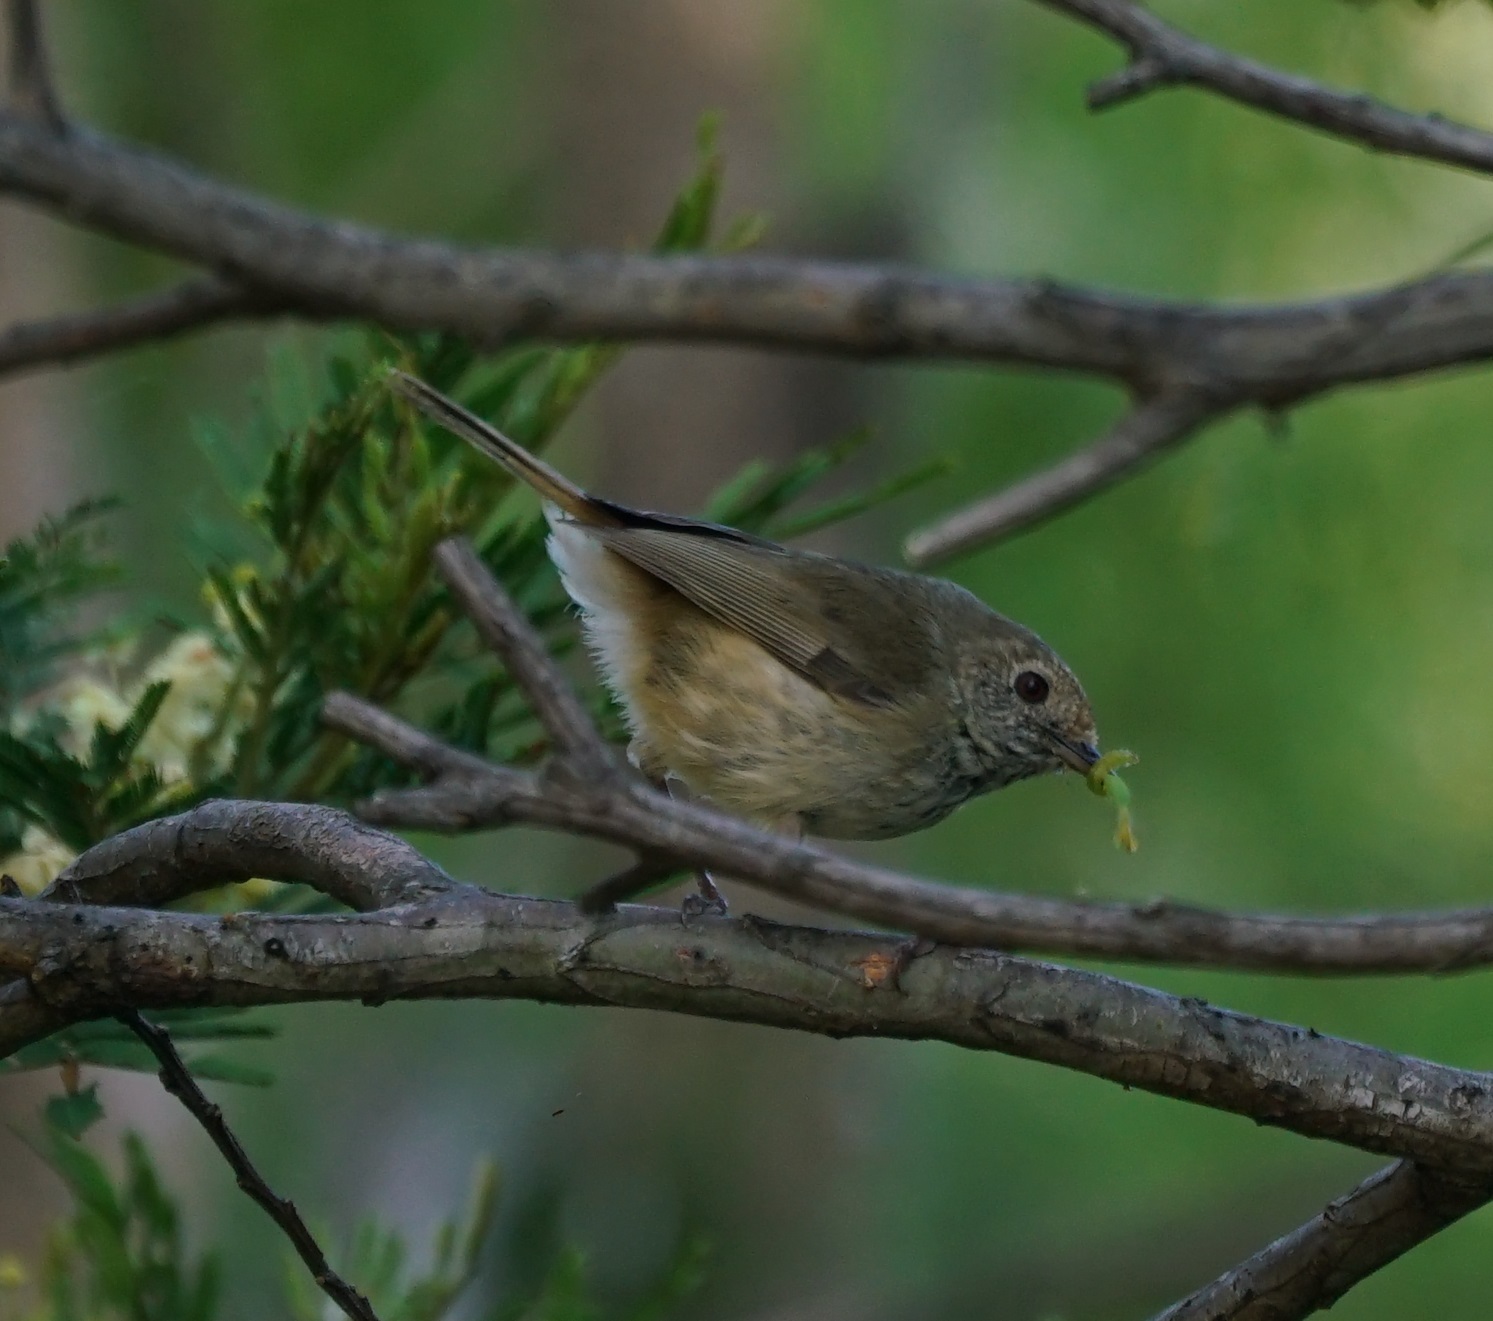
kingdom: Animalia
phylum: Chordata
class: Aves
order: Passeriformes
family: Acanthizidae
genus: Acanthiza
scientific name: Acanthiza pusilla
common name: Brown thornbill
